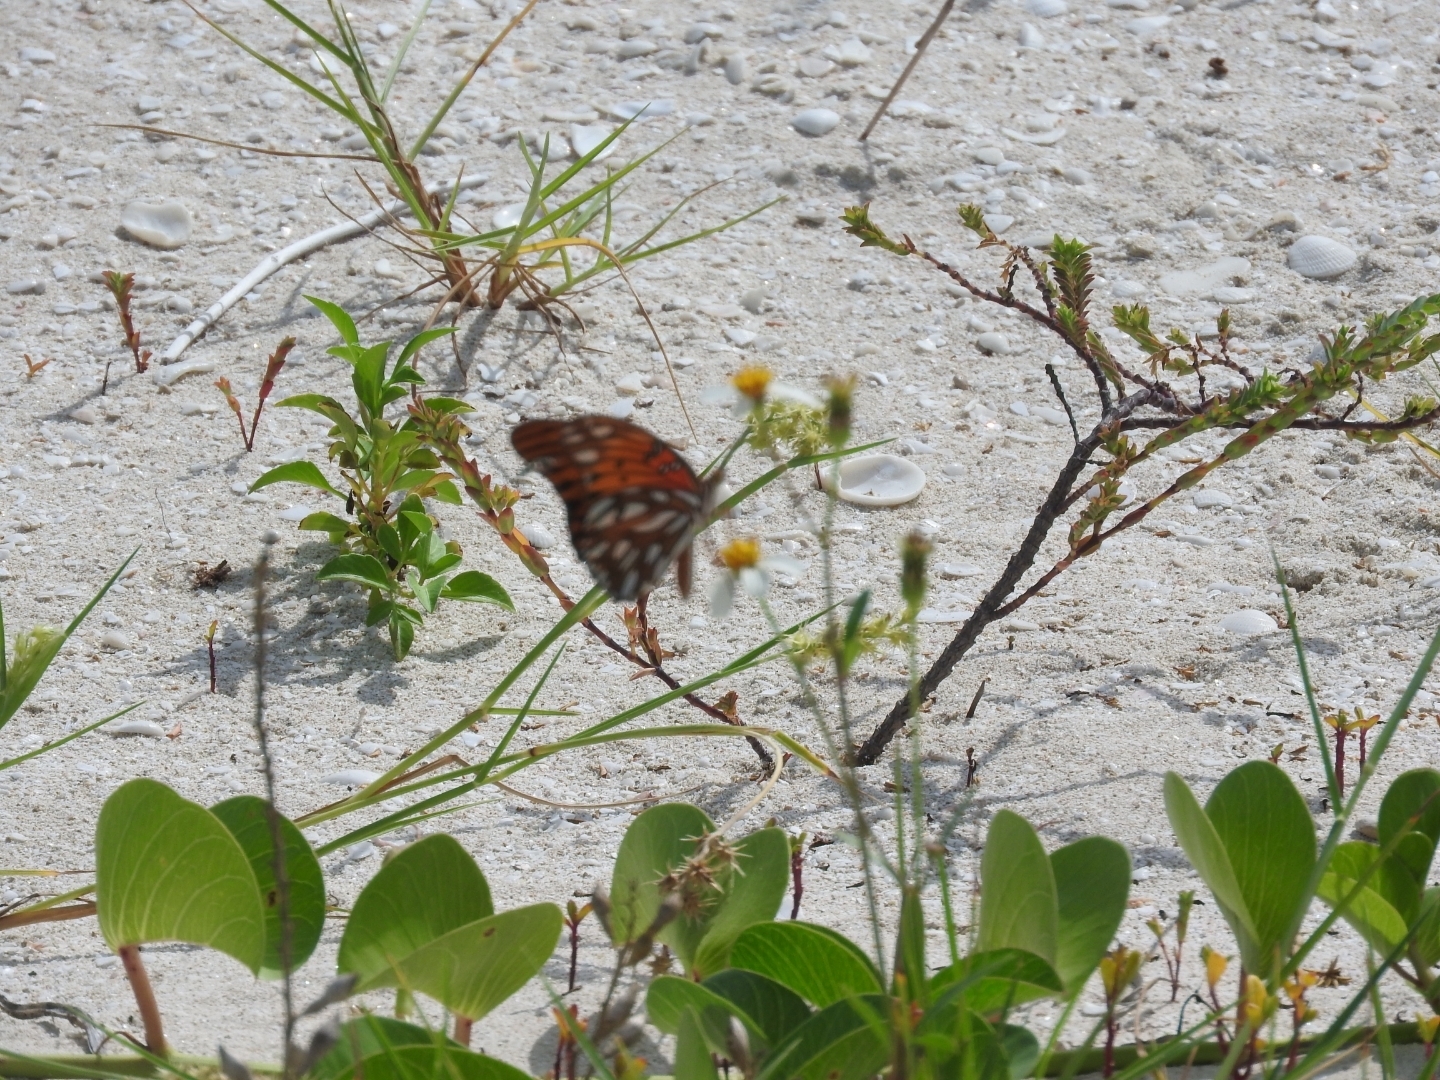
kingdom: Animalia
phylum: Arthropoda
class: Insecta
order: Lepidoptera
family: Nymphalidae
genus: Dione
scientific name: Dione vanillae
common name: Gulf fritillary
